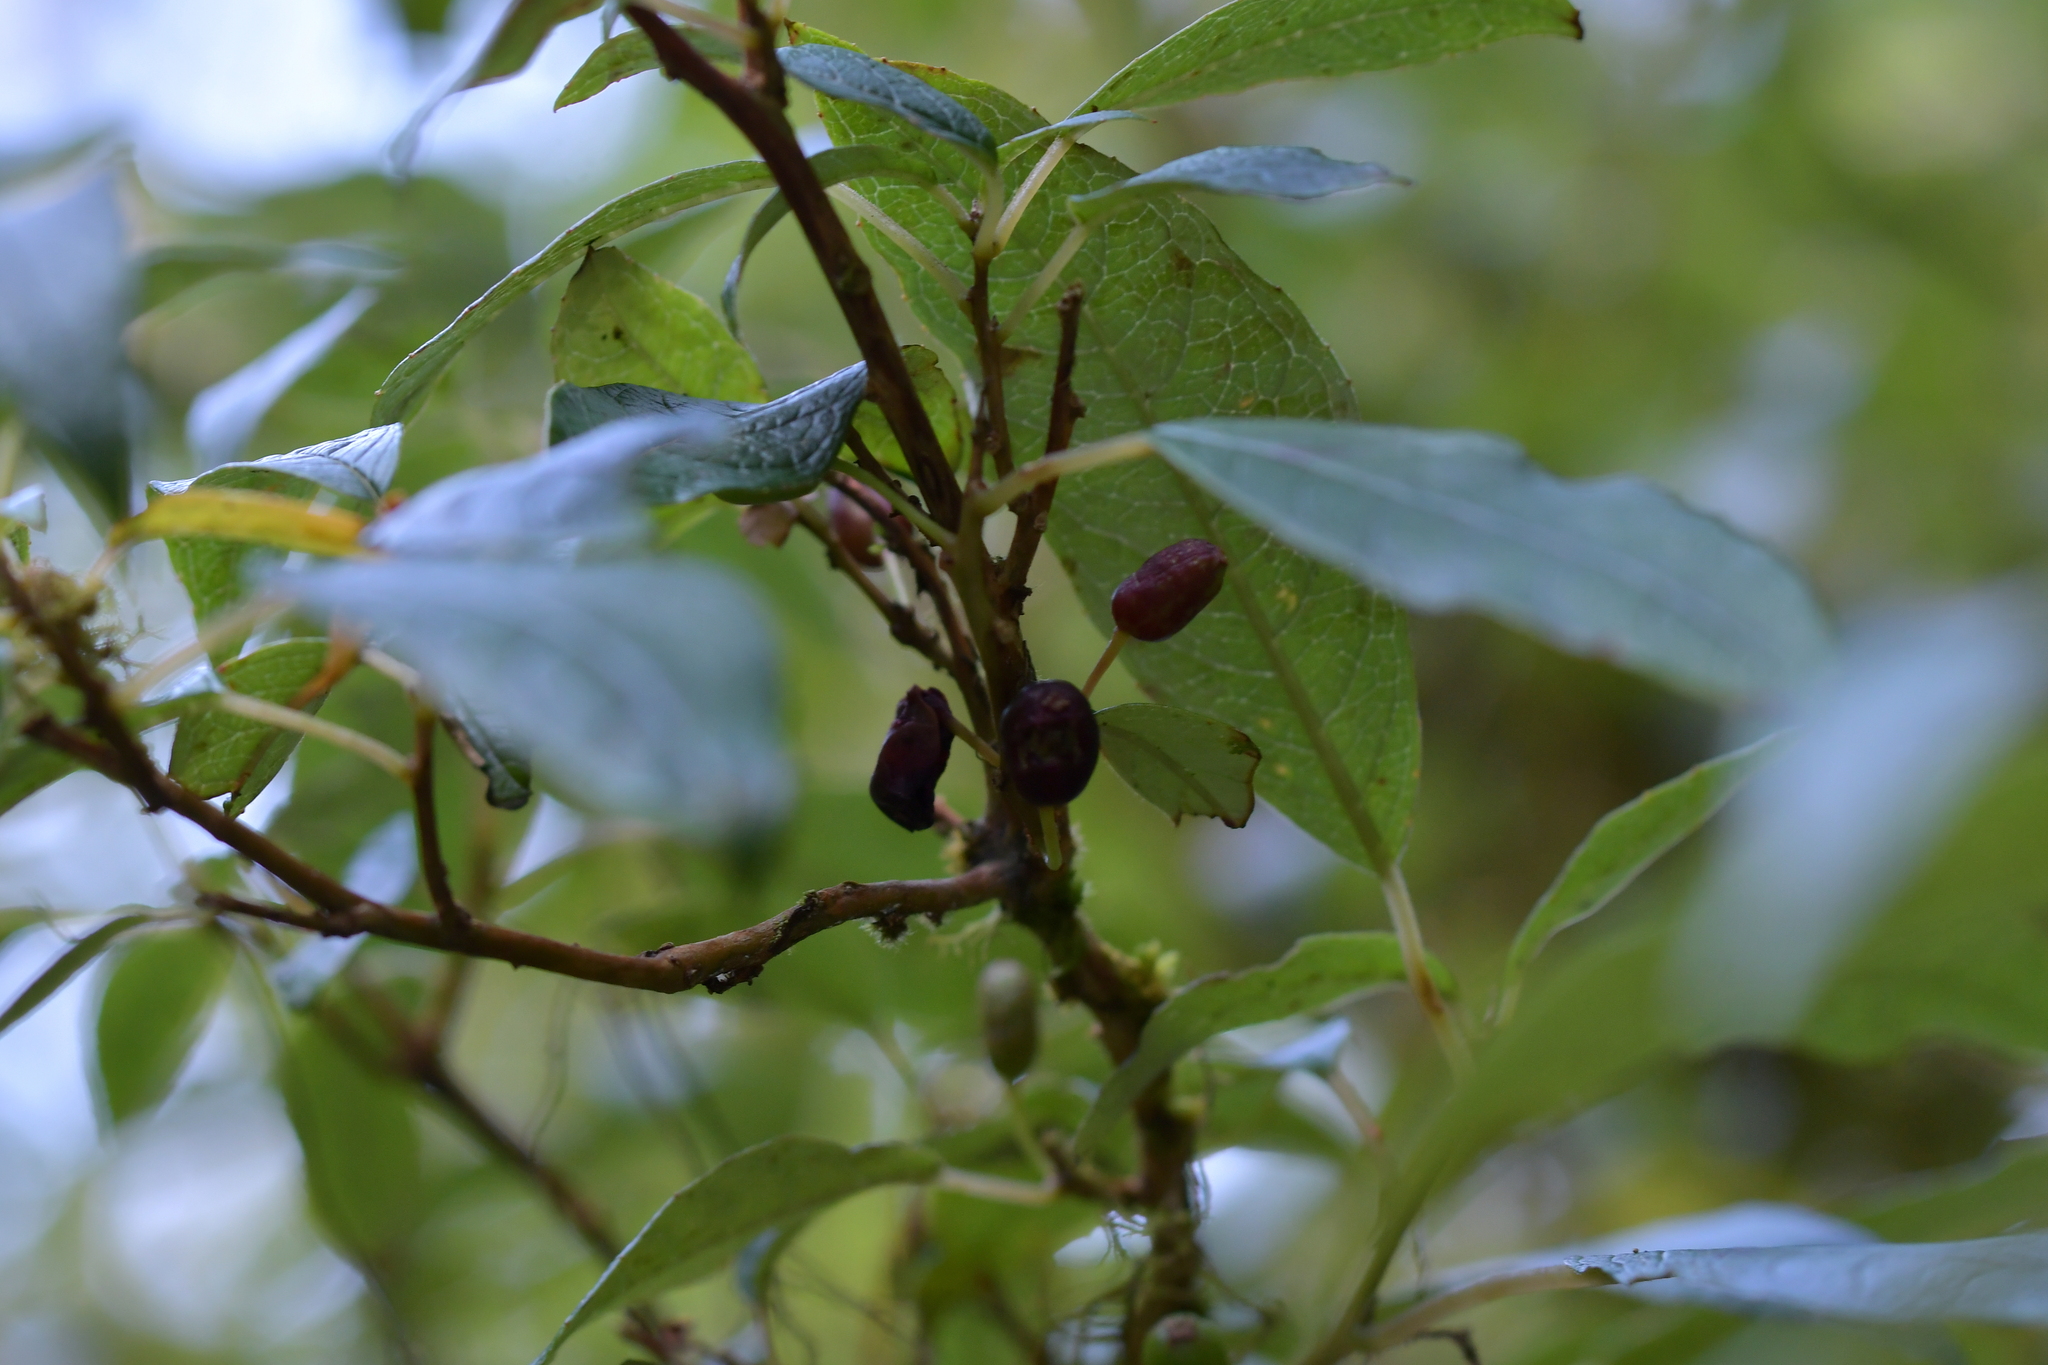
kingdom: Plantae
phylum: Tracheophyta
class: Magnoliopsida
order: Myrtales
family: Onagraceae
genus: Fuchsia
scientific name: Fuchsia excorticata
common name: Tree fuchsia
